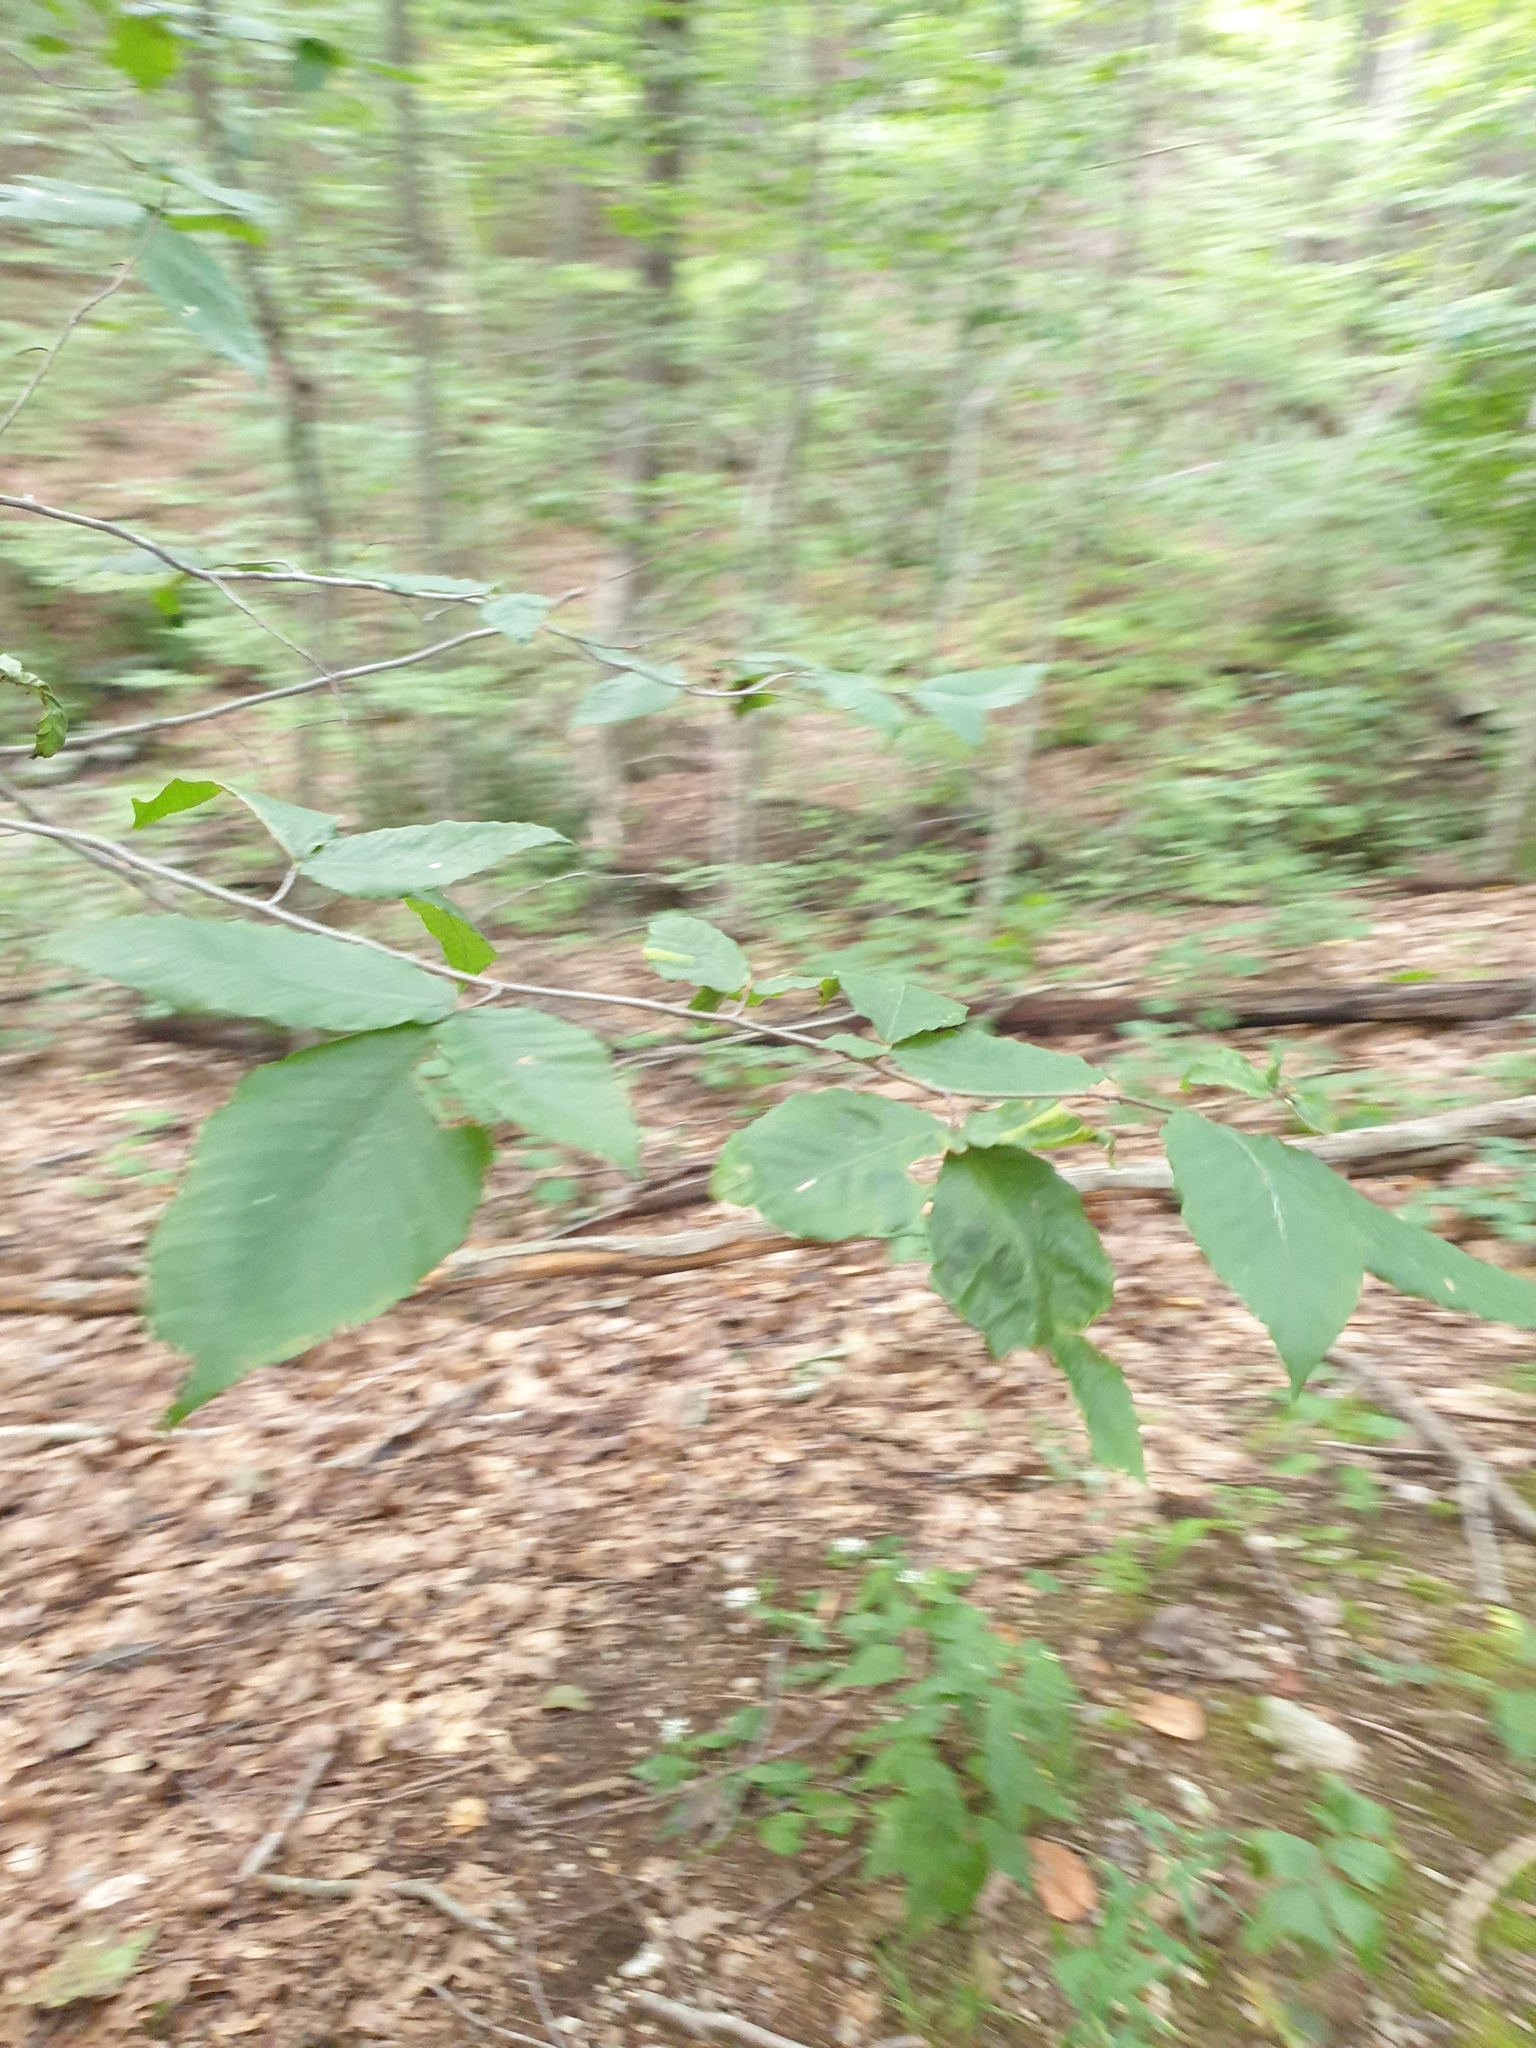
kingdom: Plantae
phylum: Tracheophyta
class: Magnoliopsida
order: Fagales
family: Fagaceae
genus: Fagus
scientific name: Fagus grandifolia
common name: American beech
